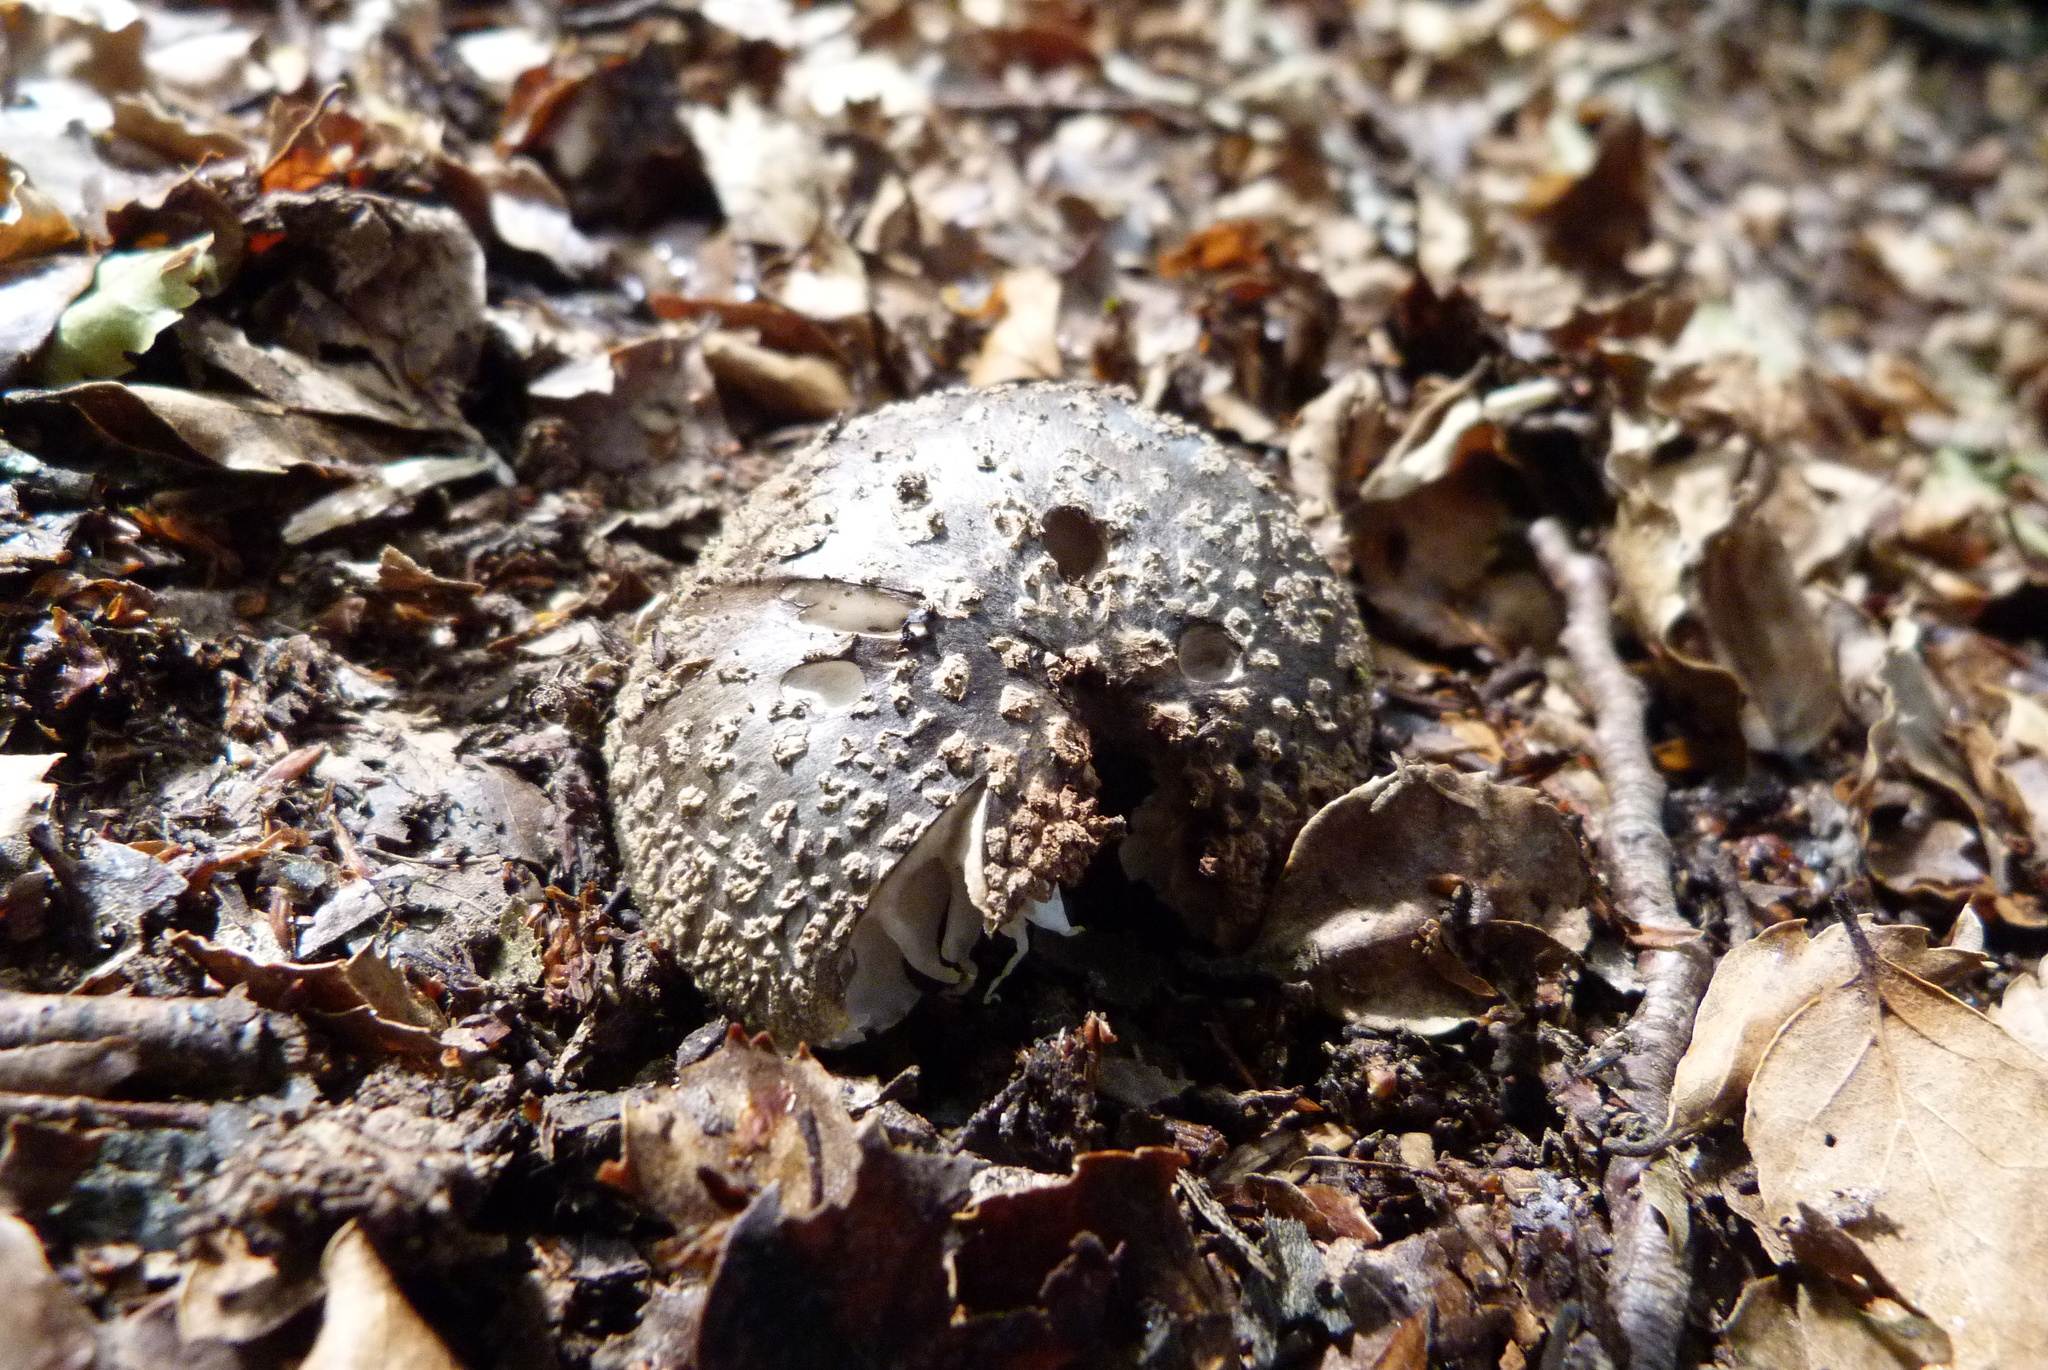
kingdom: Fungi
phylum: Basidiomycota
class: Agaricomycetes
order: Agaricales
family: Amanitaceae
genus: Amanita
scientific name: Amanita nothofagi
